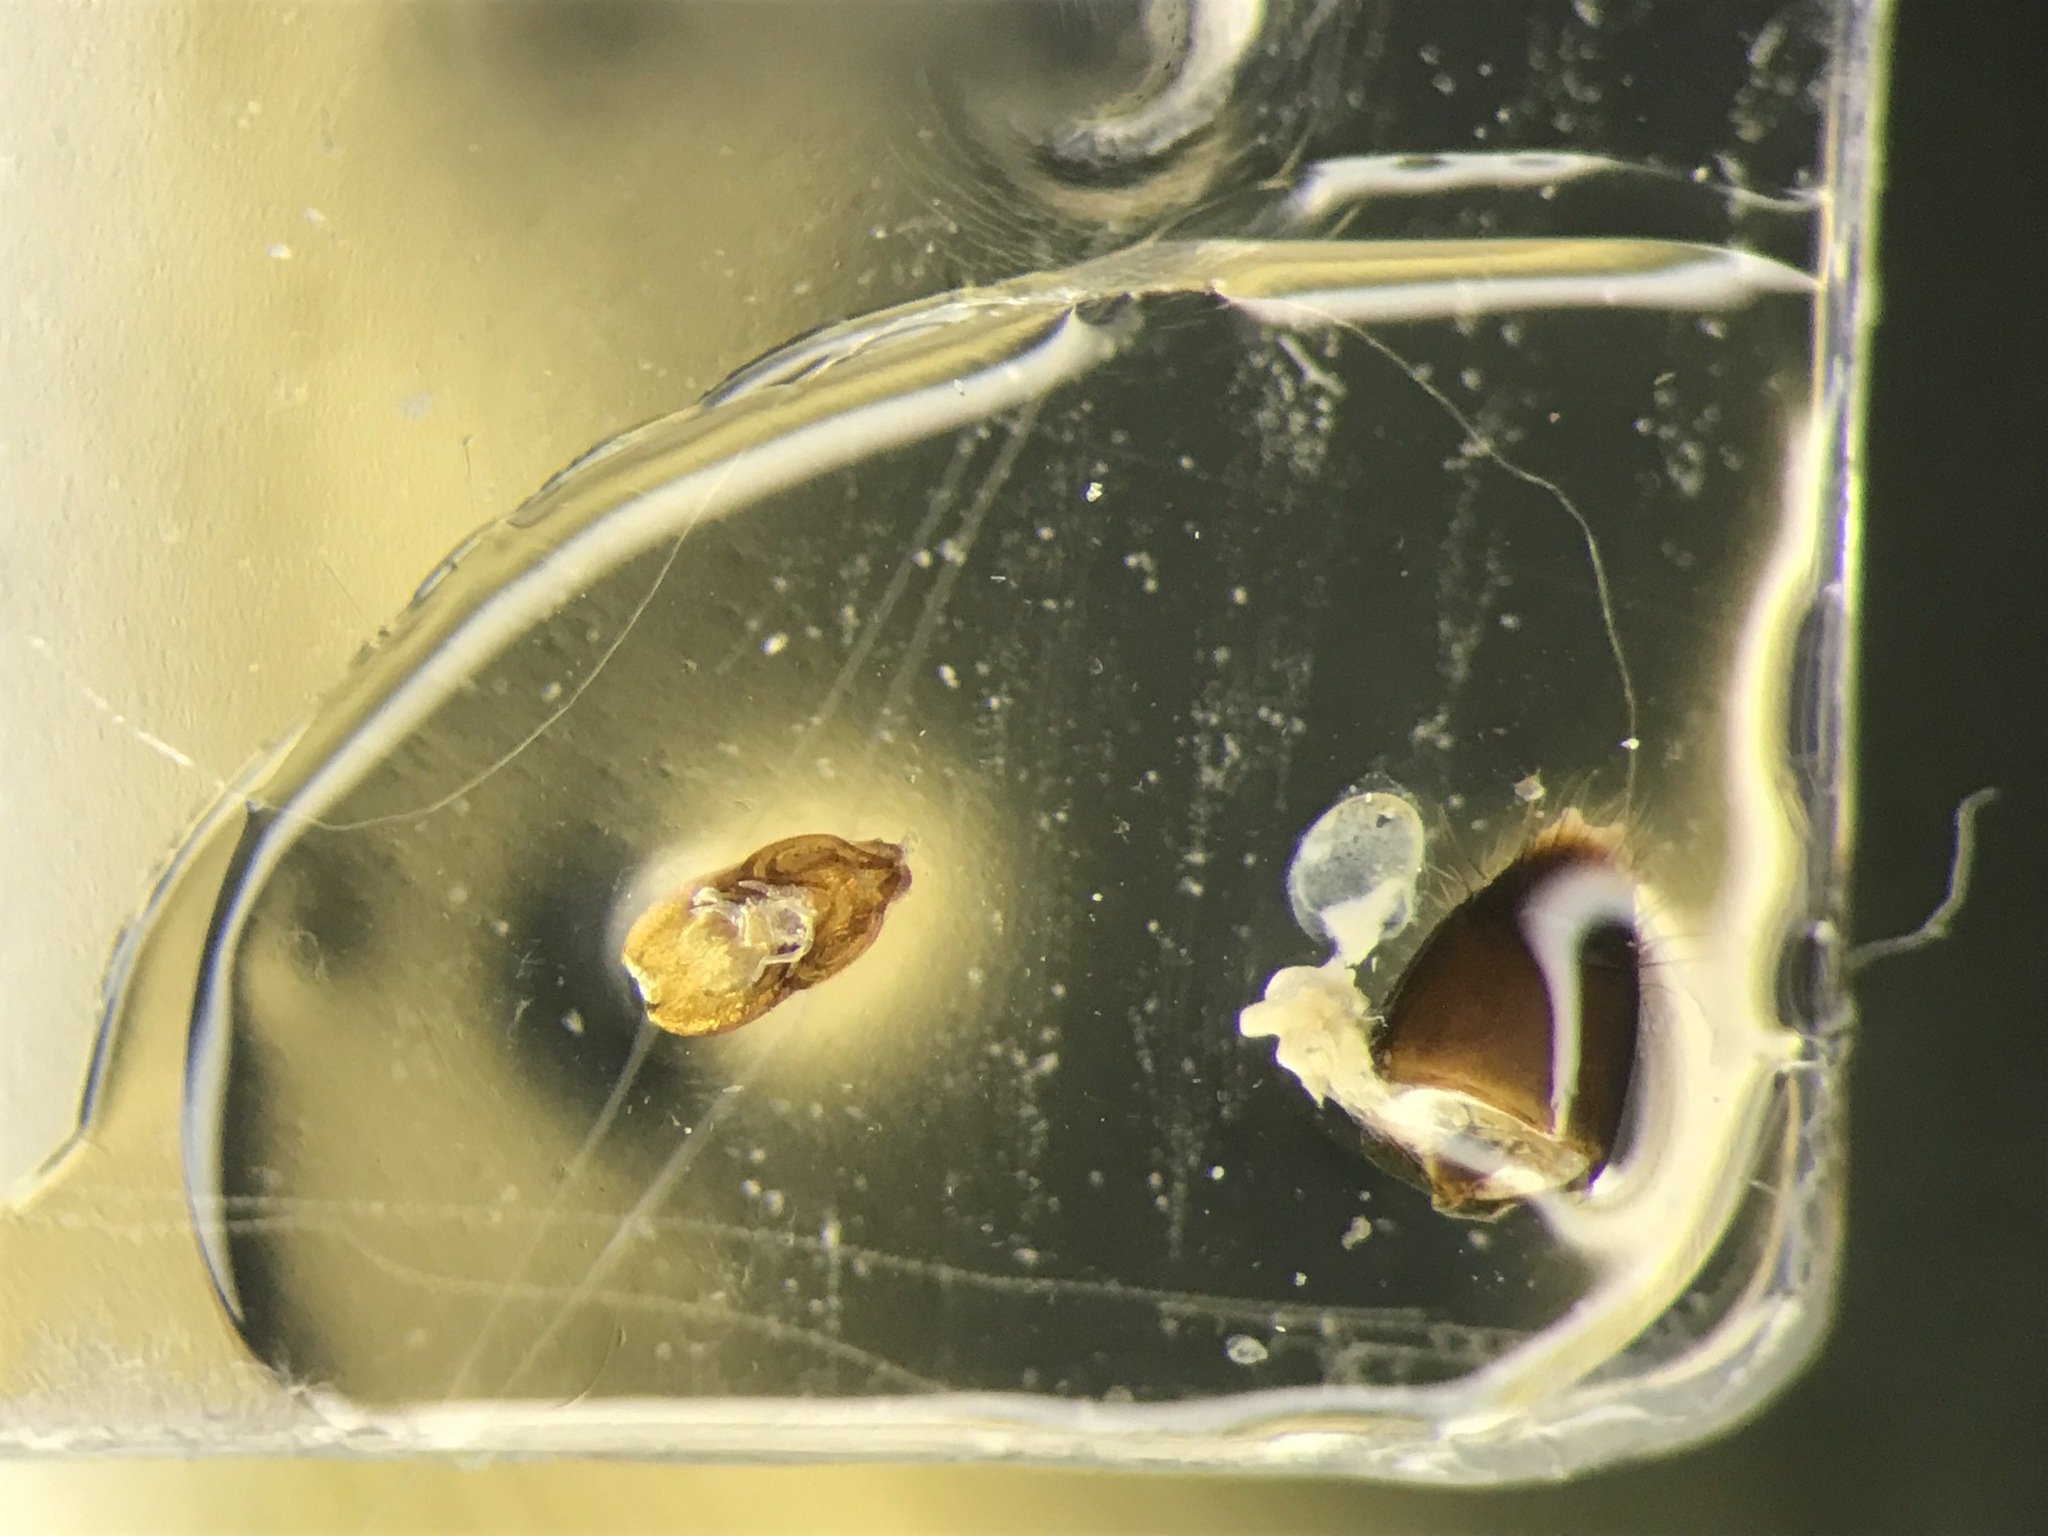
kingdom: Animalia
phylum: Arthropoda
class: Insecta
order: Coleoptera
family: Staphylinidae
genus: Carphacis
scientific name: Carphacis nepigonensis
